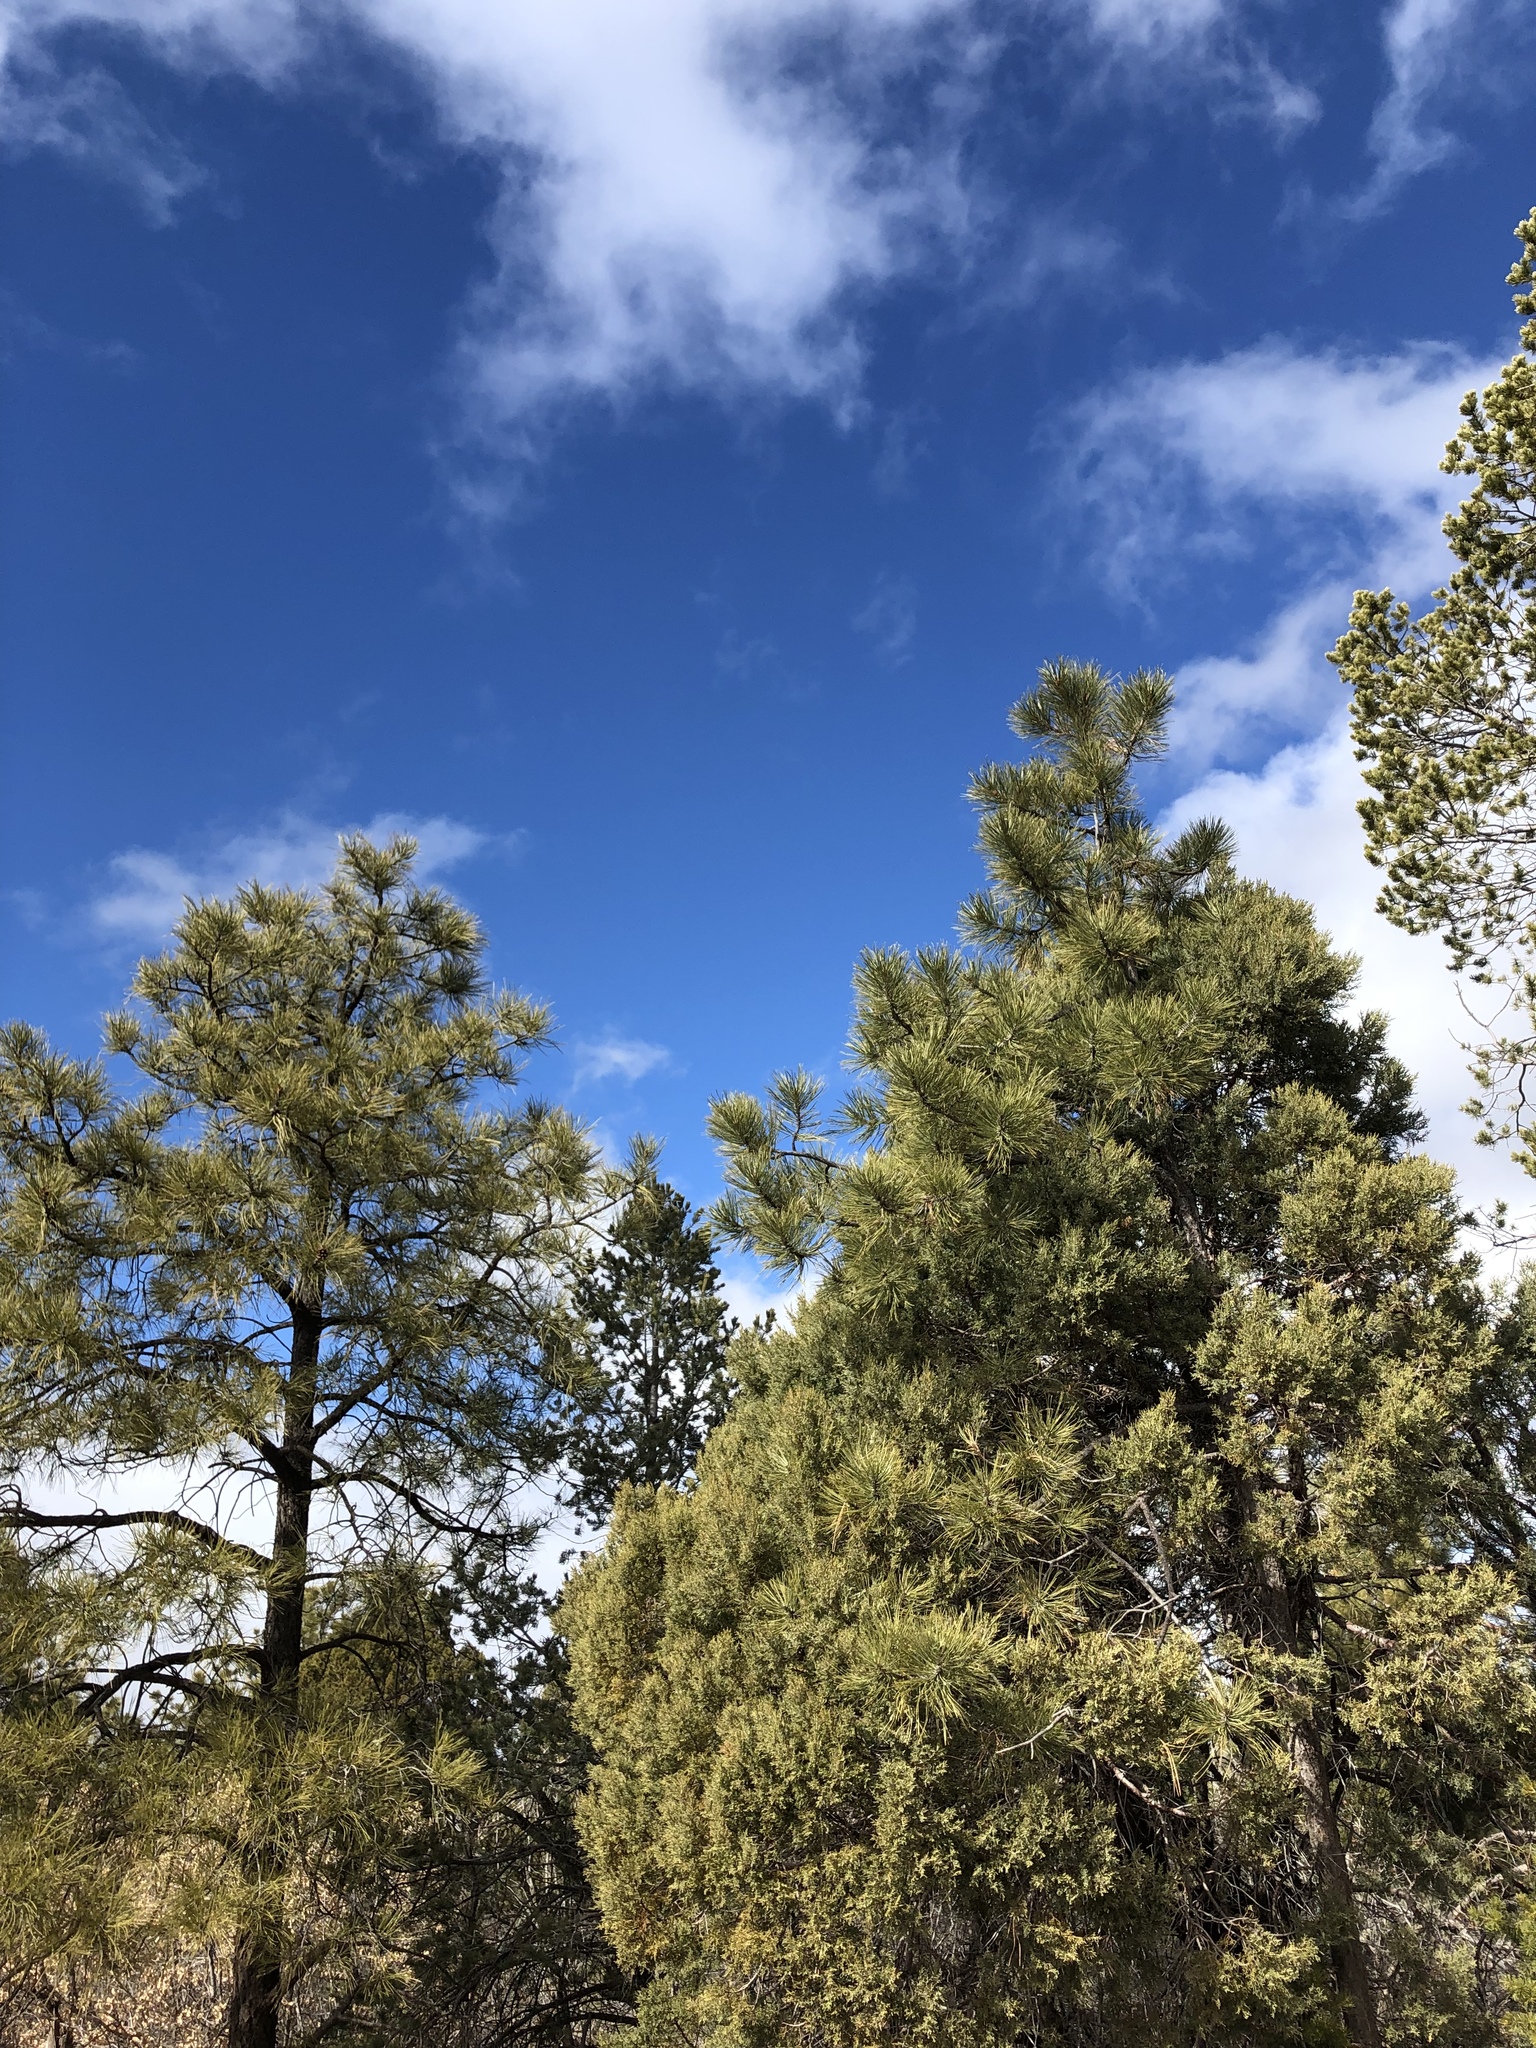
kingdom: Plantae
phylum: Tracheophyta
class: Pinopsida
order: Pinales
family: Pinaceae
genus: Pinus
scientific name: Pinus ponderosa
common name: Western yellow-pine
